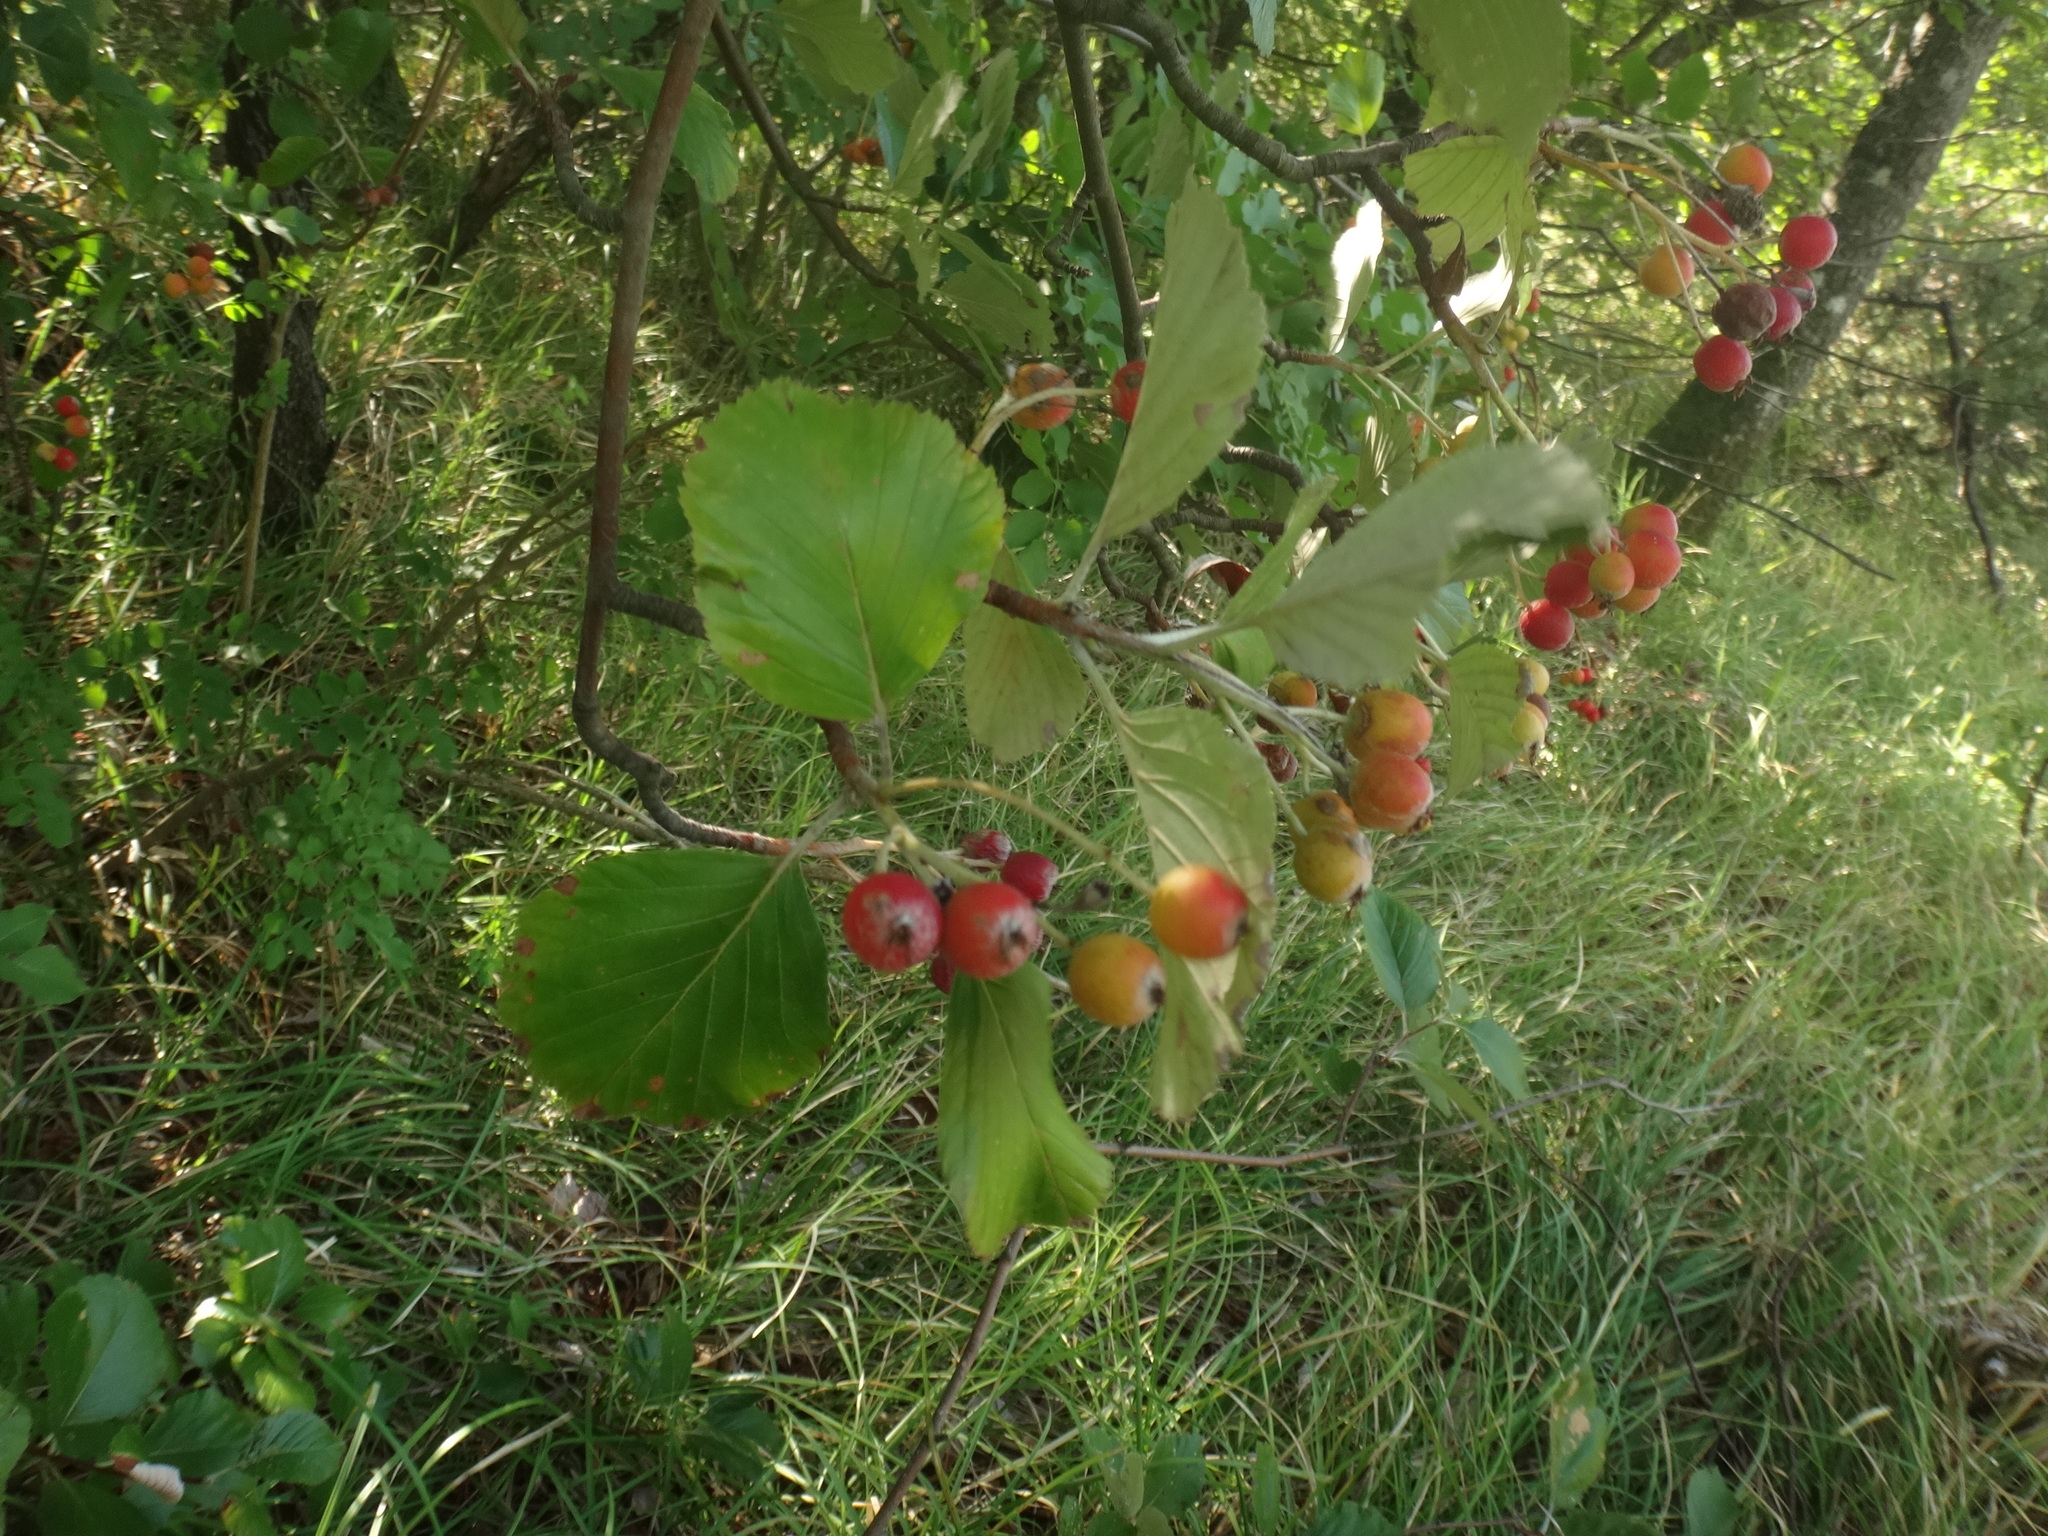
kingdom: Plantae
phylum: Tracheophyta
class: Magnoliopsida
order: Rosales
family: Rosaceae
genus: Aria
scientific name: Aria edulis
